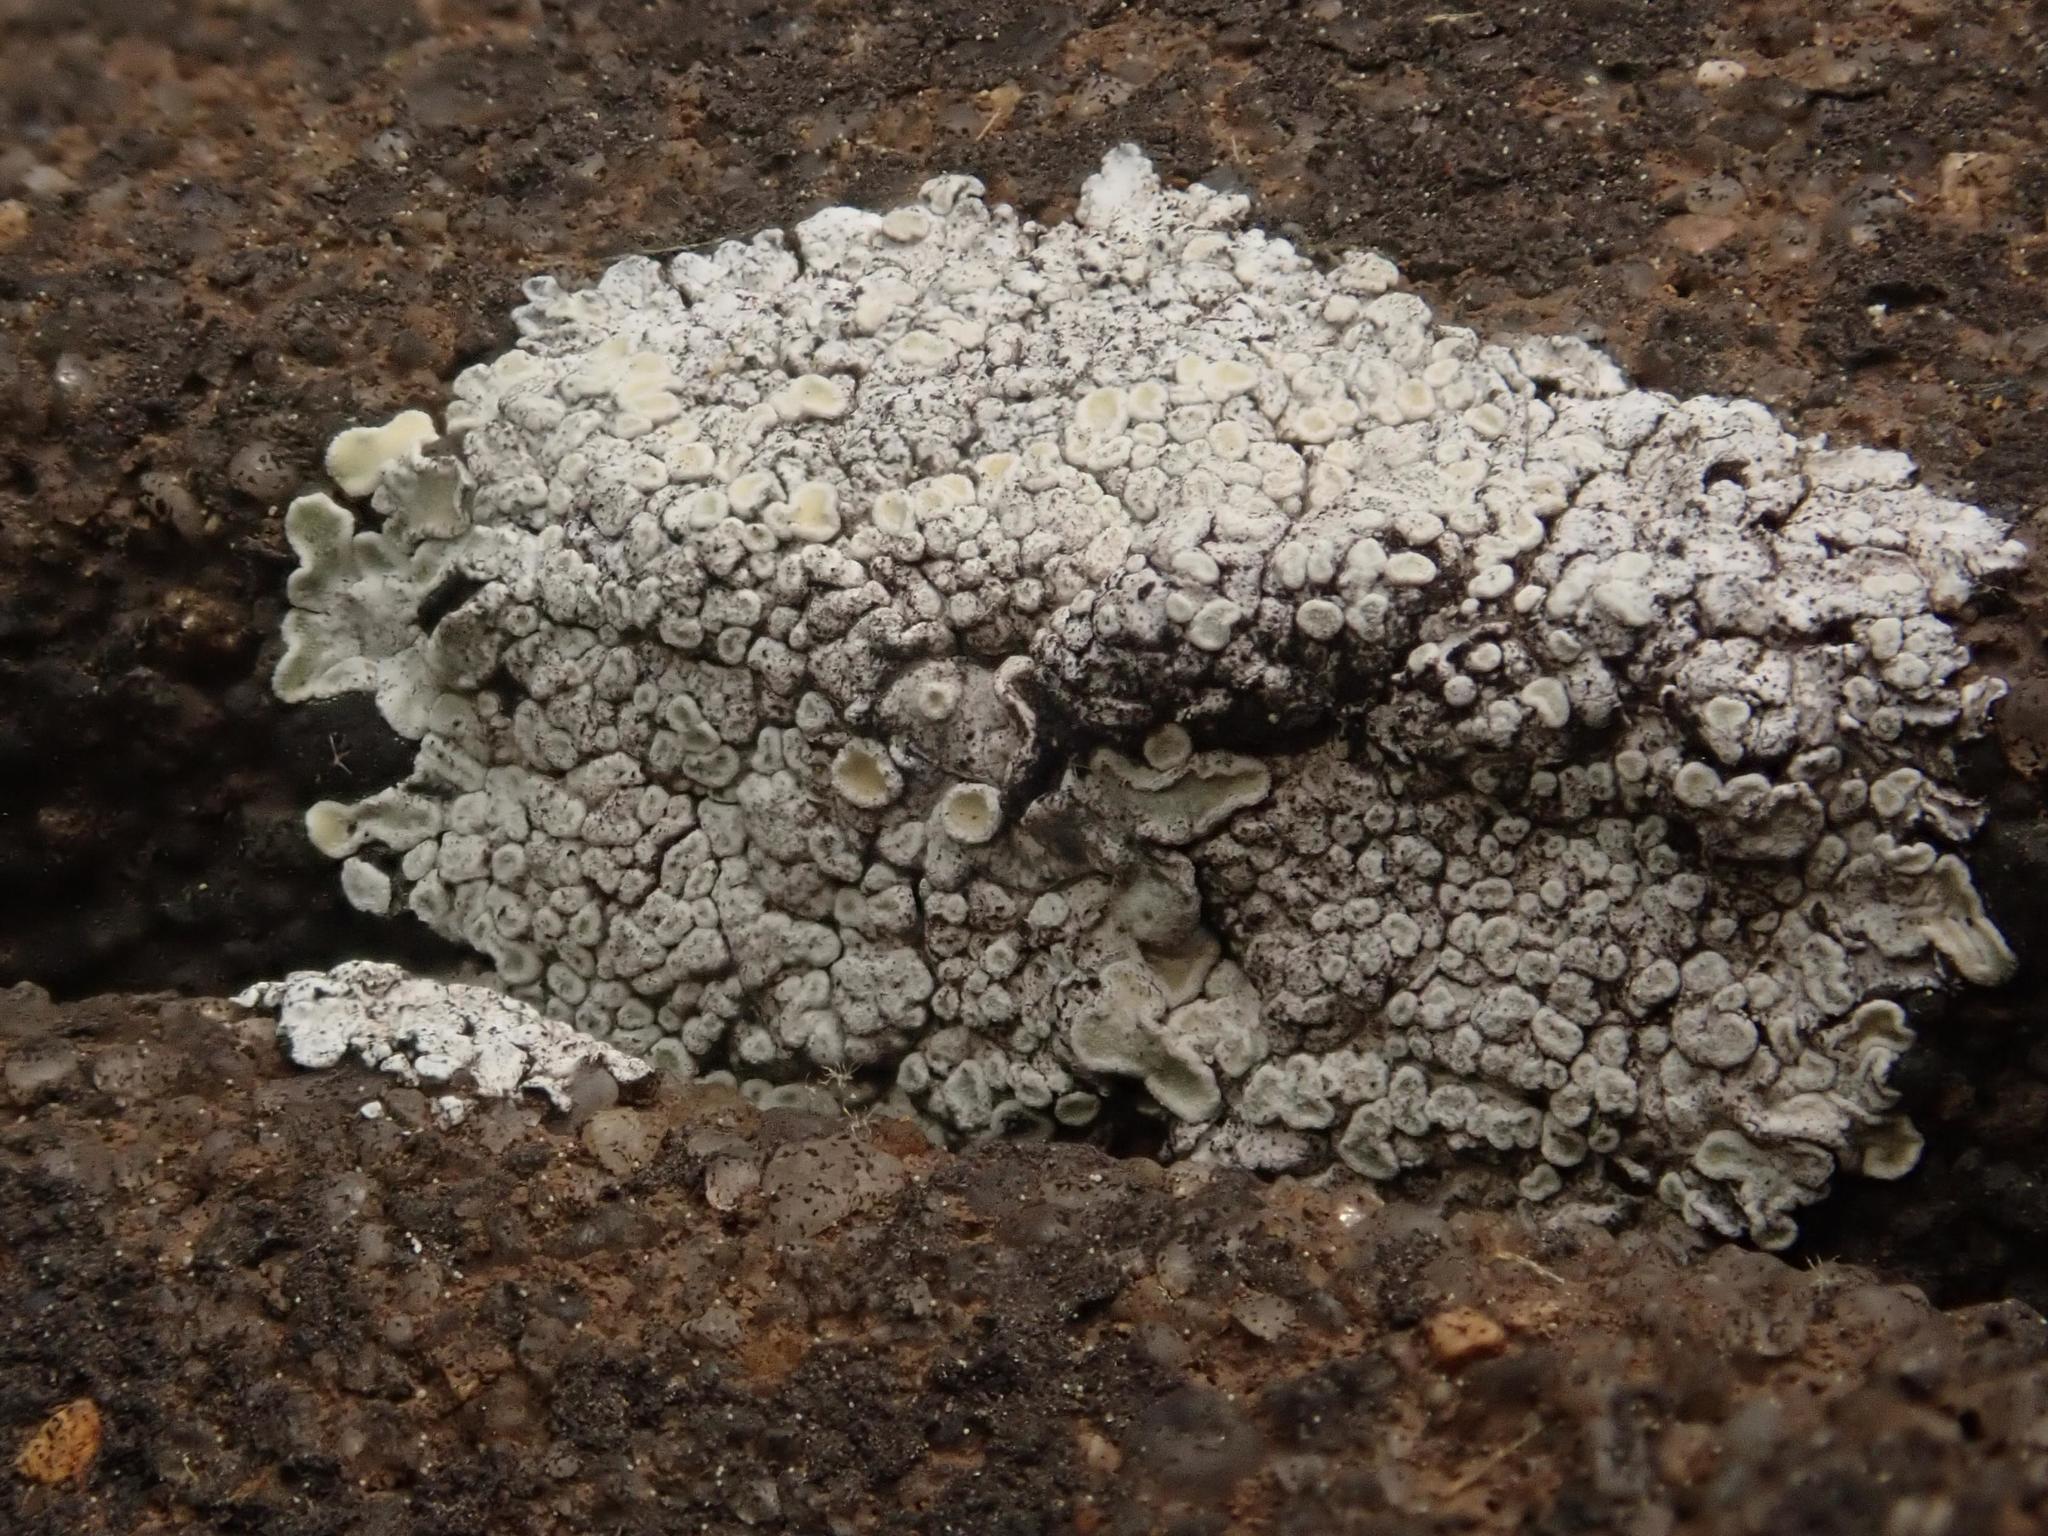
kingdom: Fungi
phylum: Ascomycota
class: Lecanoromycetes
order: Lecanorales
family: Lecanoraceae
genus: Protoparmeliopsis
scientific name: Protoparmeliopsis muralis
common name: Stonewall rim lichen
